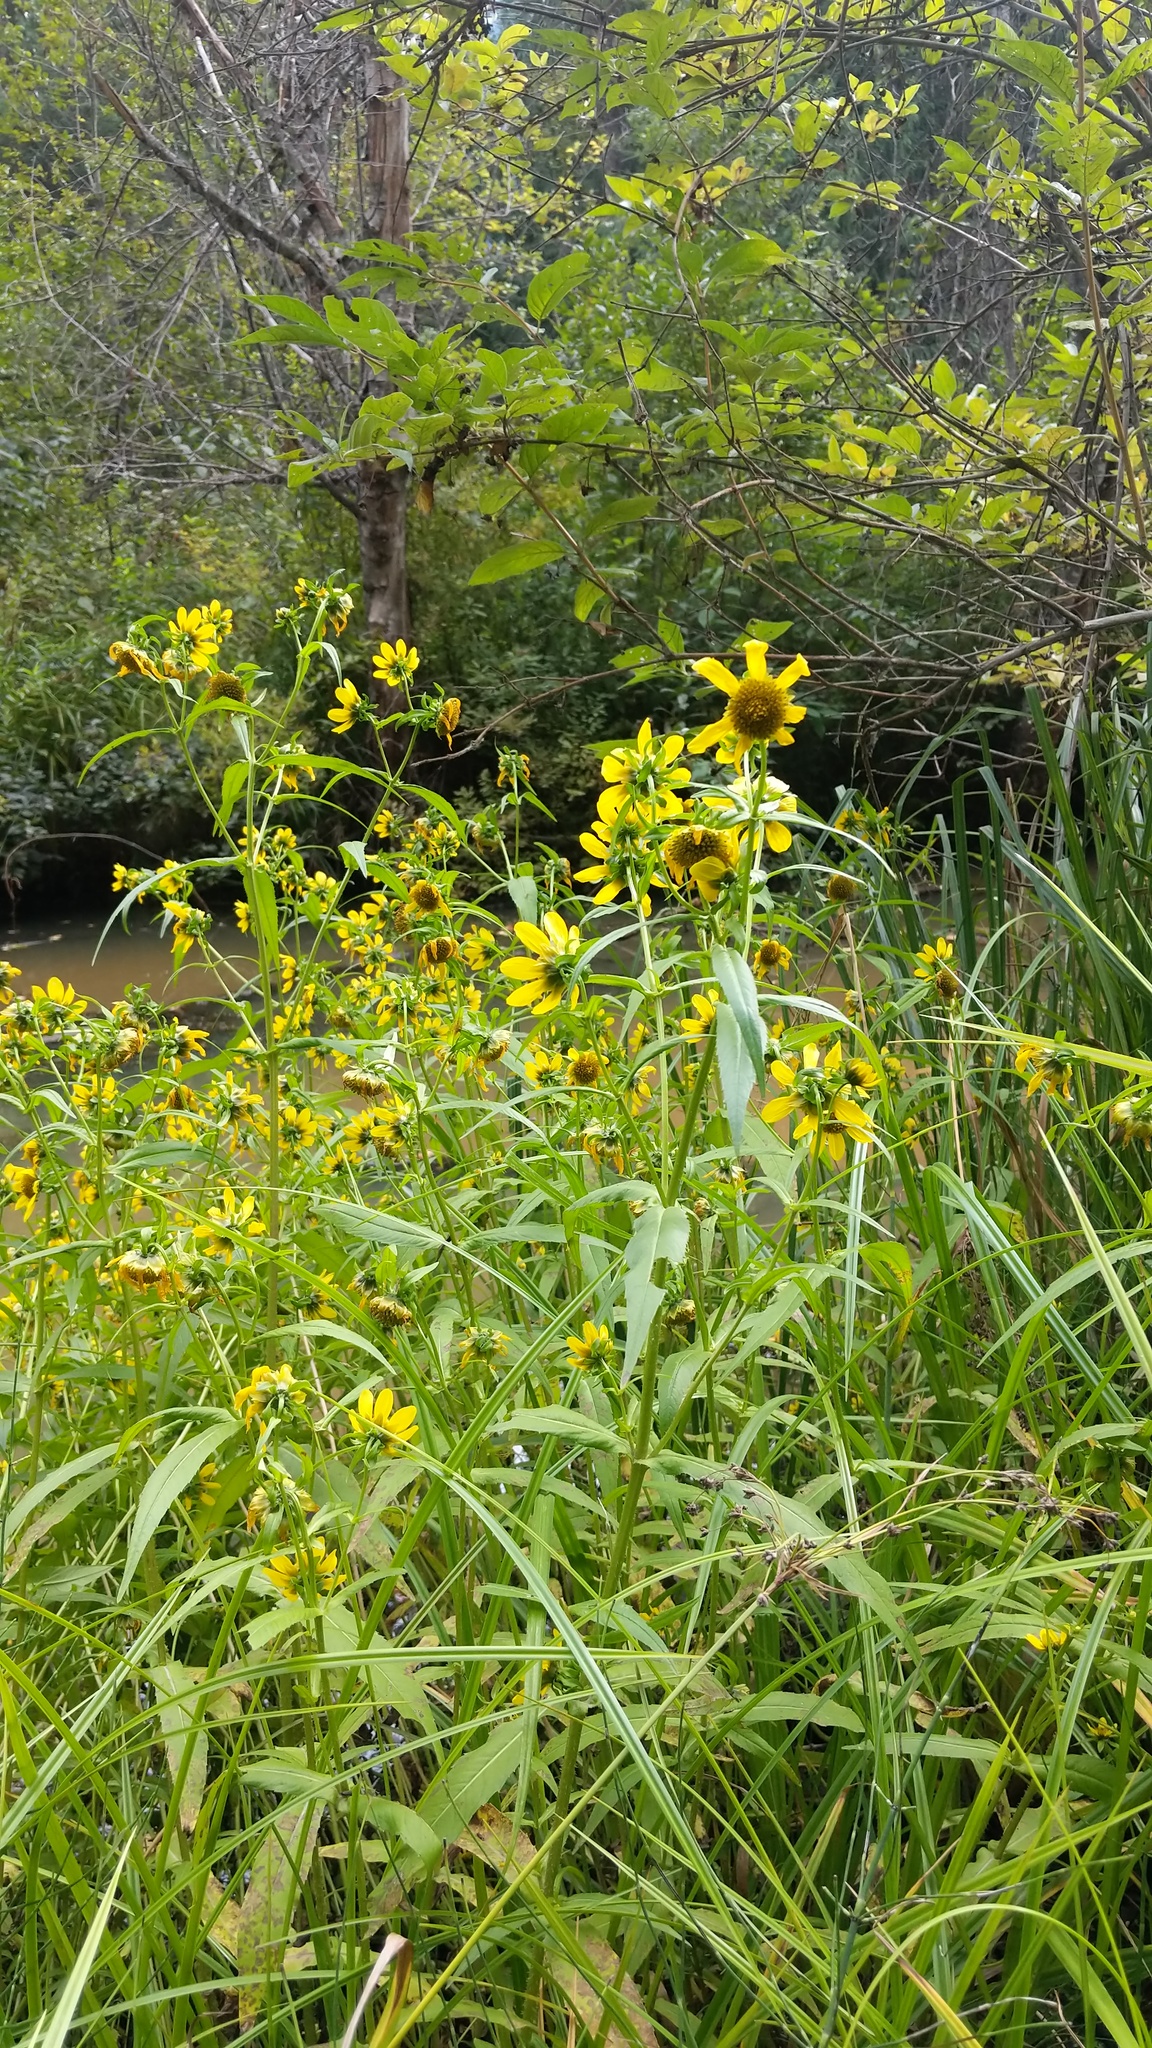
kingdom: Plantae
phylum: Tracheophyta
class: Magnoliopsida
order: Asterales
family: Asteraceae
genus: Bidens
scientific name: Bidens cernua
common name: Nodding bur-marigold
